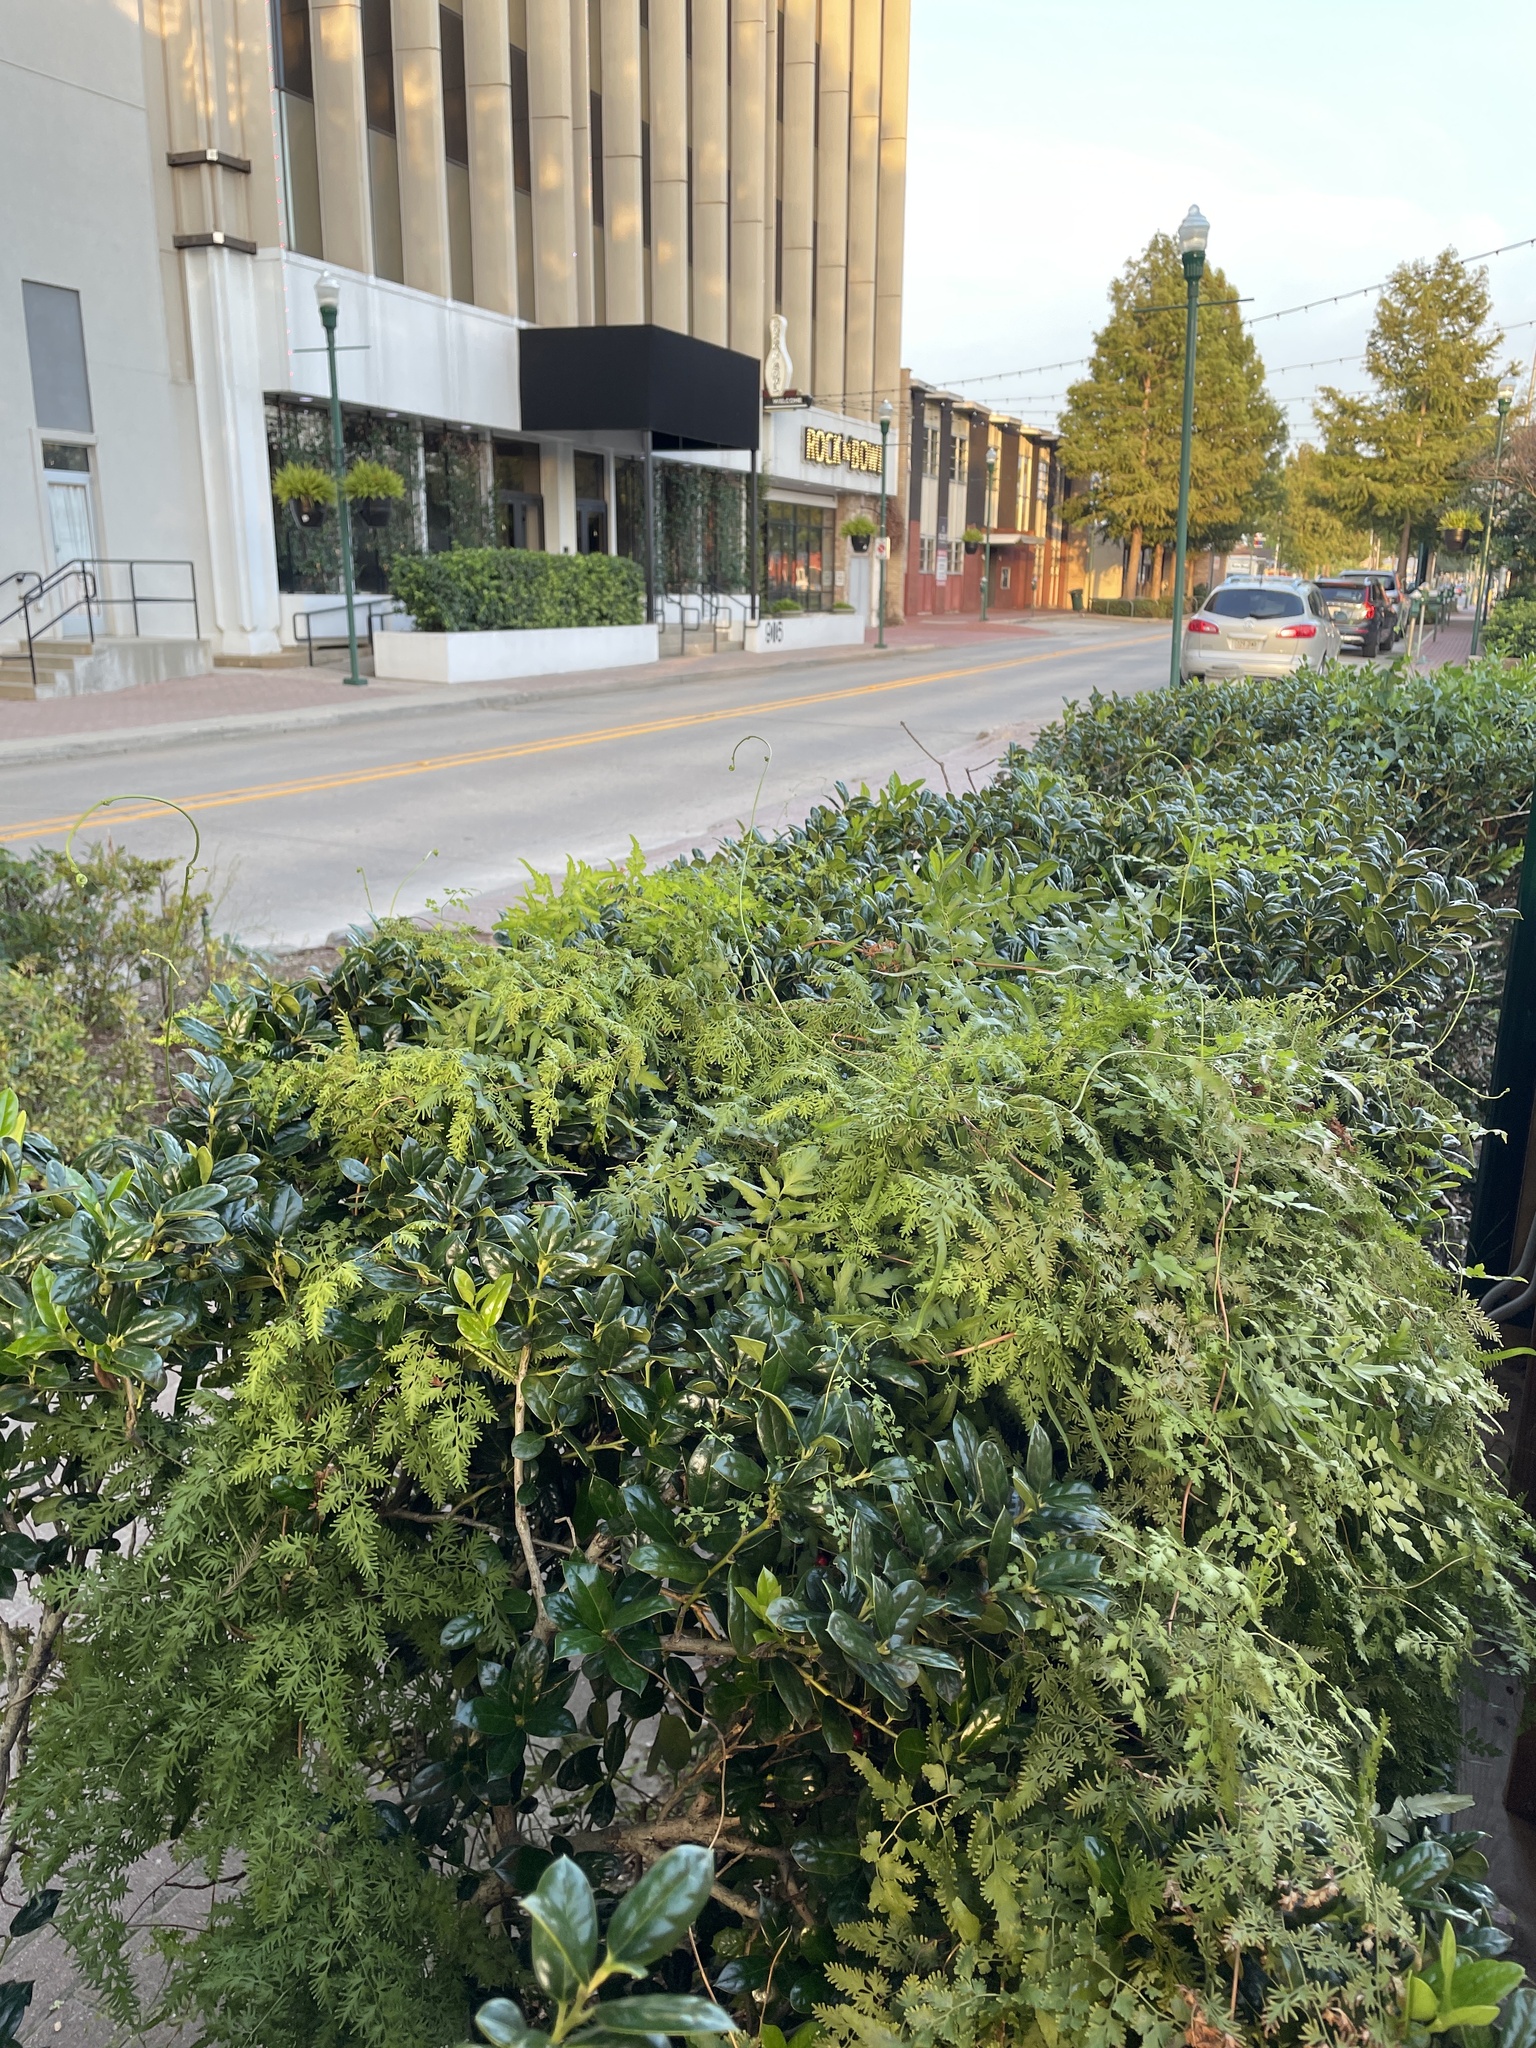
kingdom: Plantae
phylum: Tracheophyta
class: Polypodiopsida
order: Schizaeales
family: Lygodiaceae
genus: Lygodium
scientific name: Lygodium japonicum
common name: Japanese climbing fern
